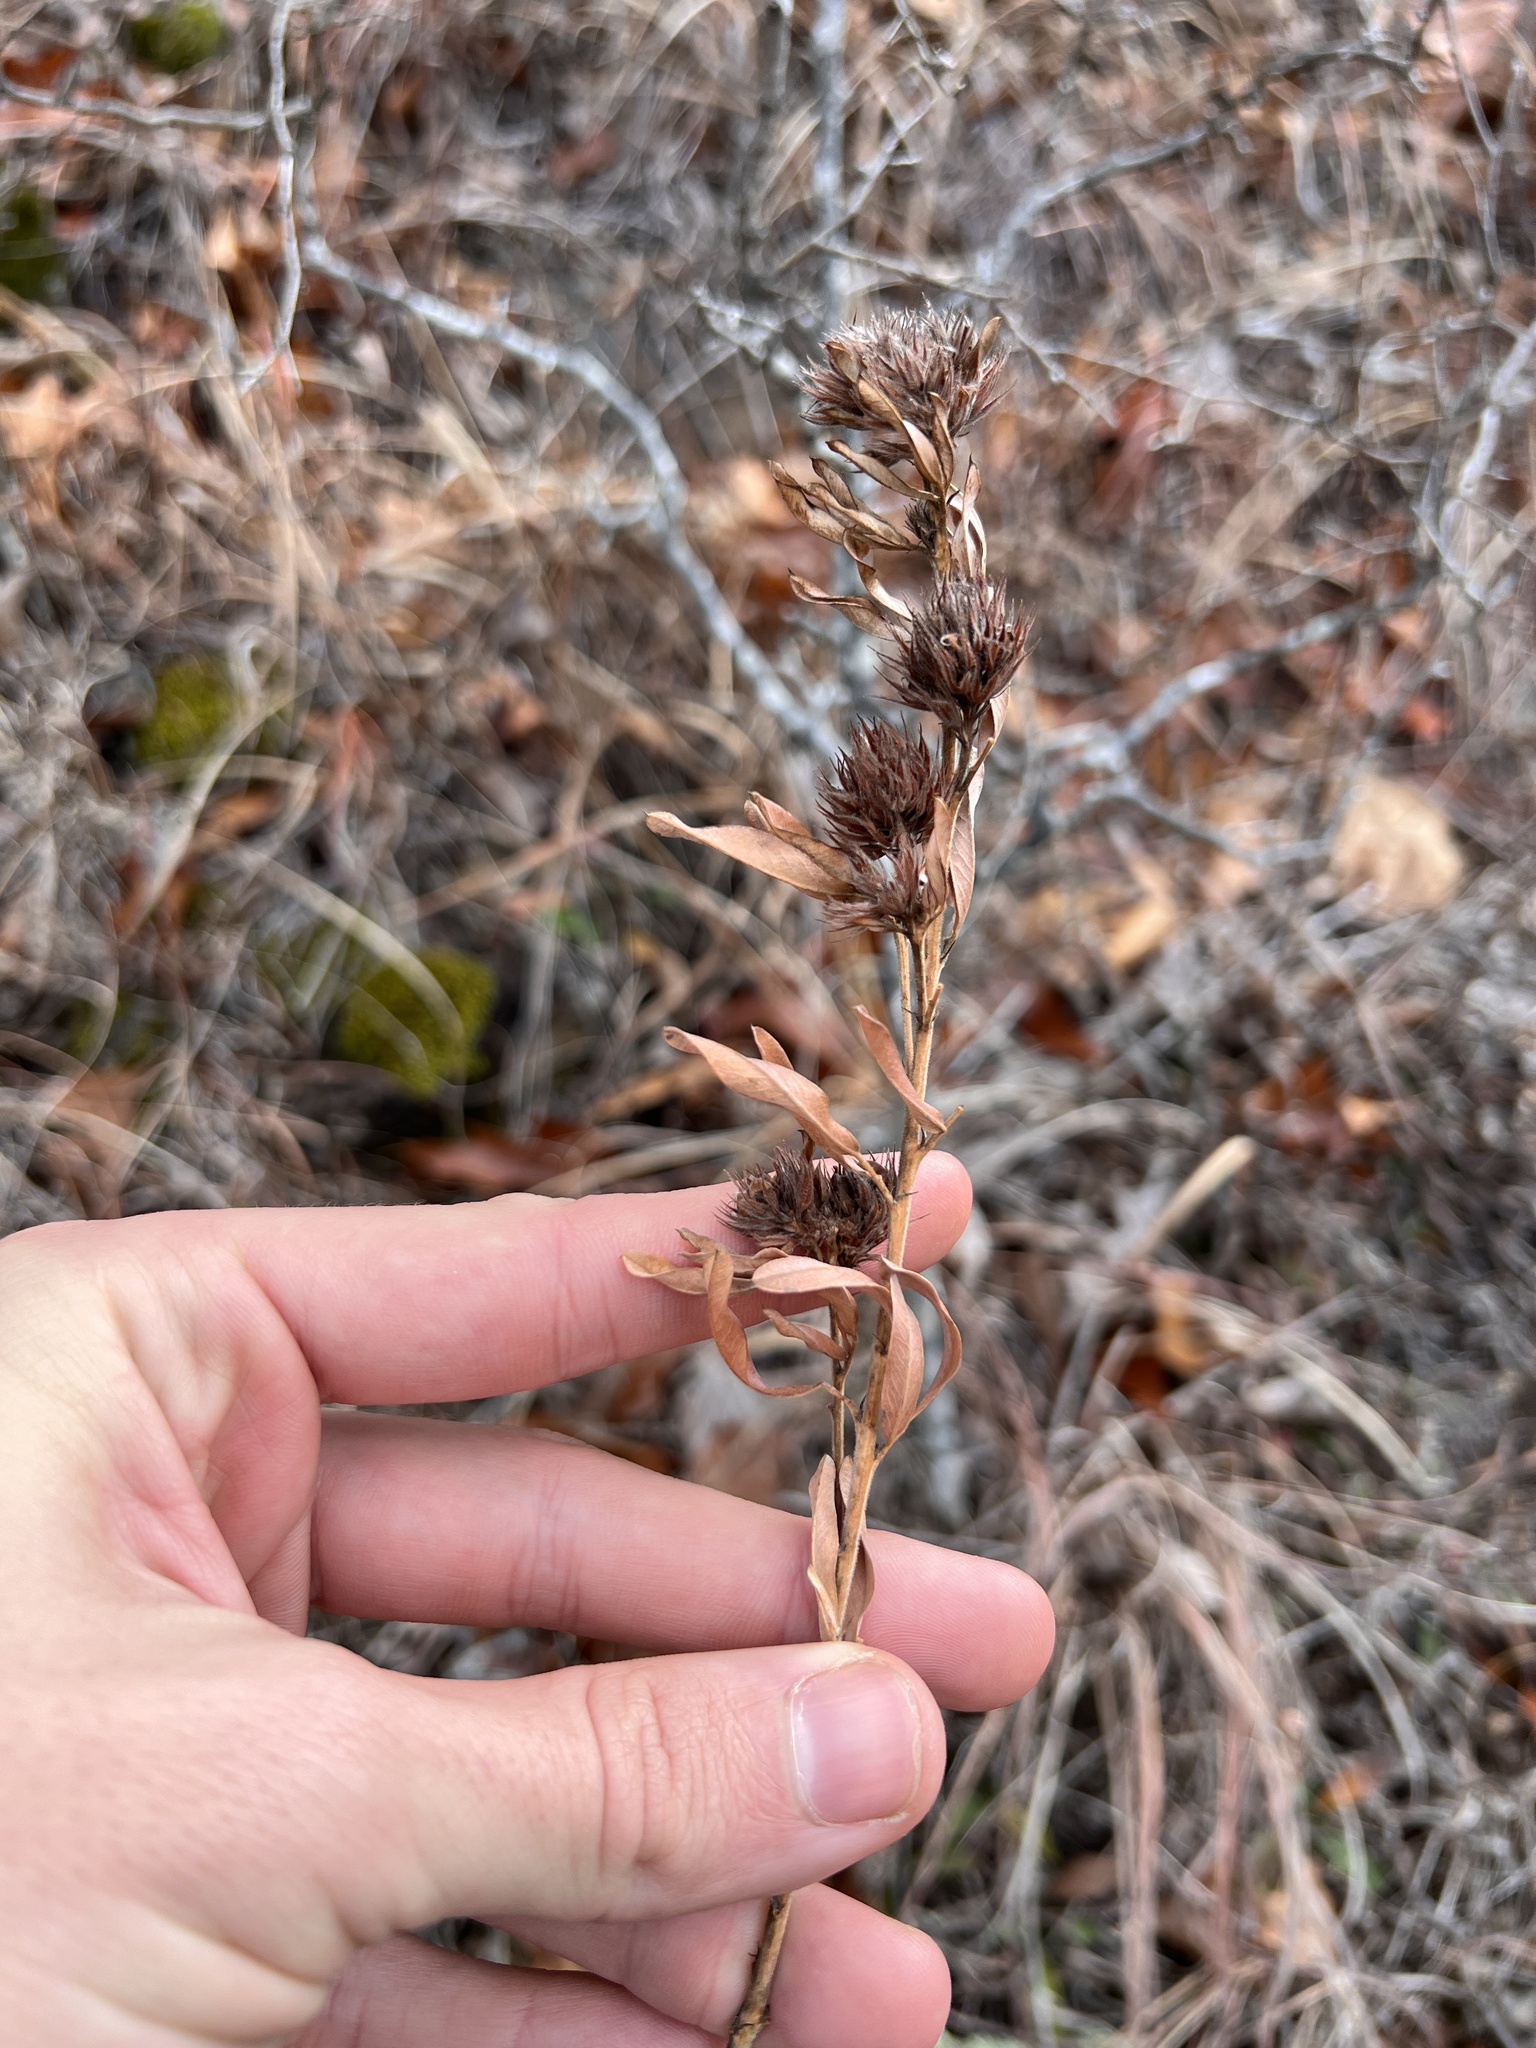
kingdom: Plantae
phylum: Tracheophyta
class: Magnoliopsida
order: Fabales
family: Fabaceae
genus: Lespedeza
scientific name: Lespedeza capitata
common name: Dusty clover
